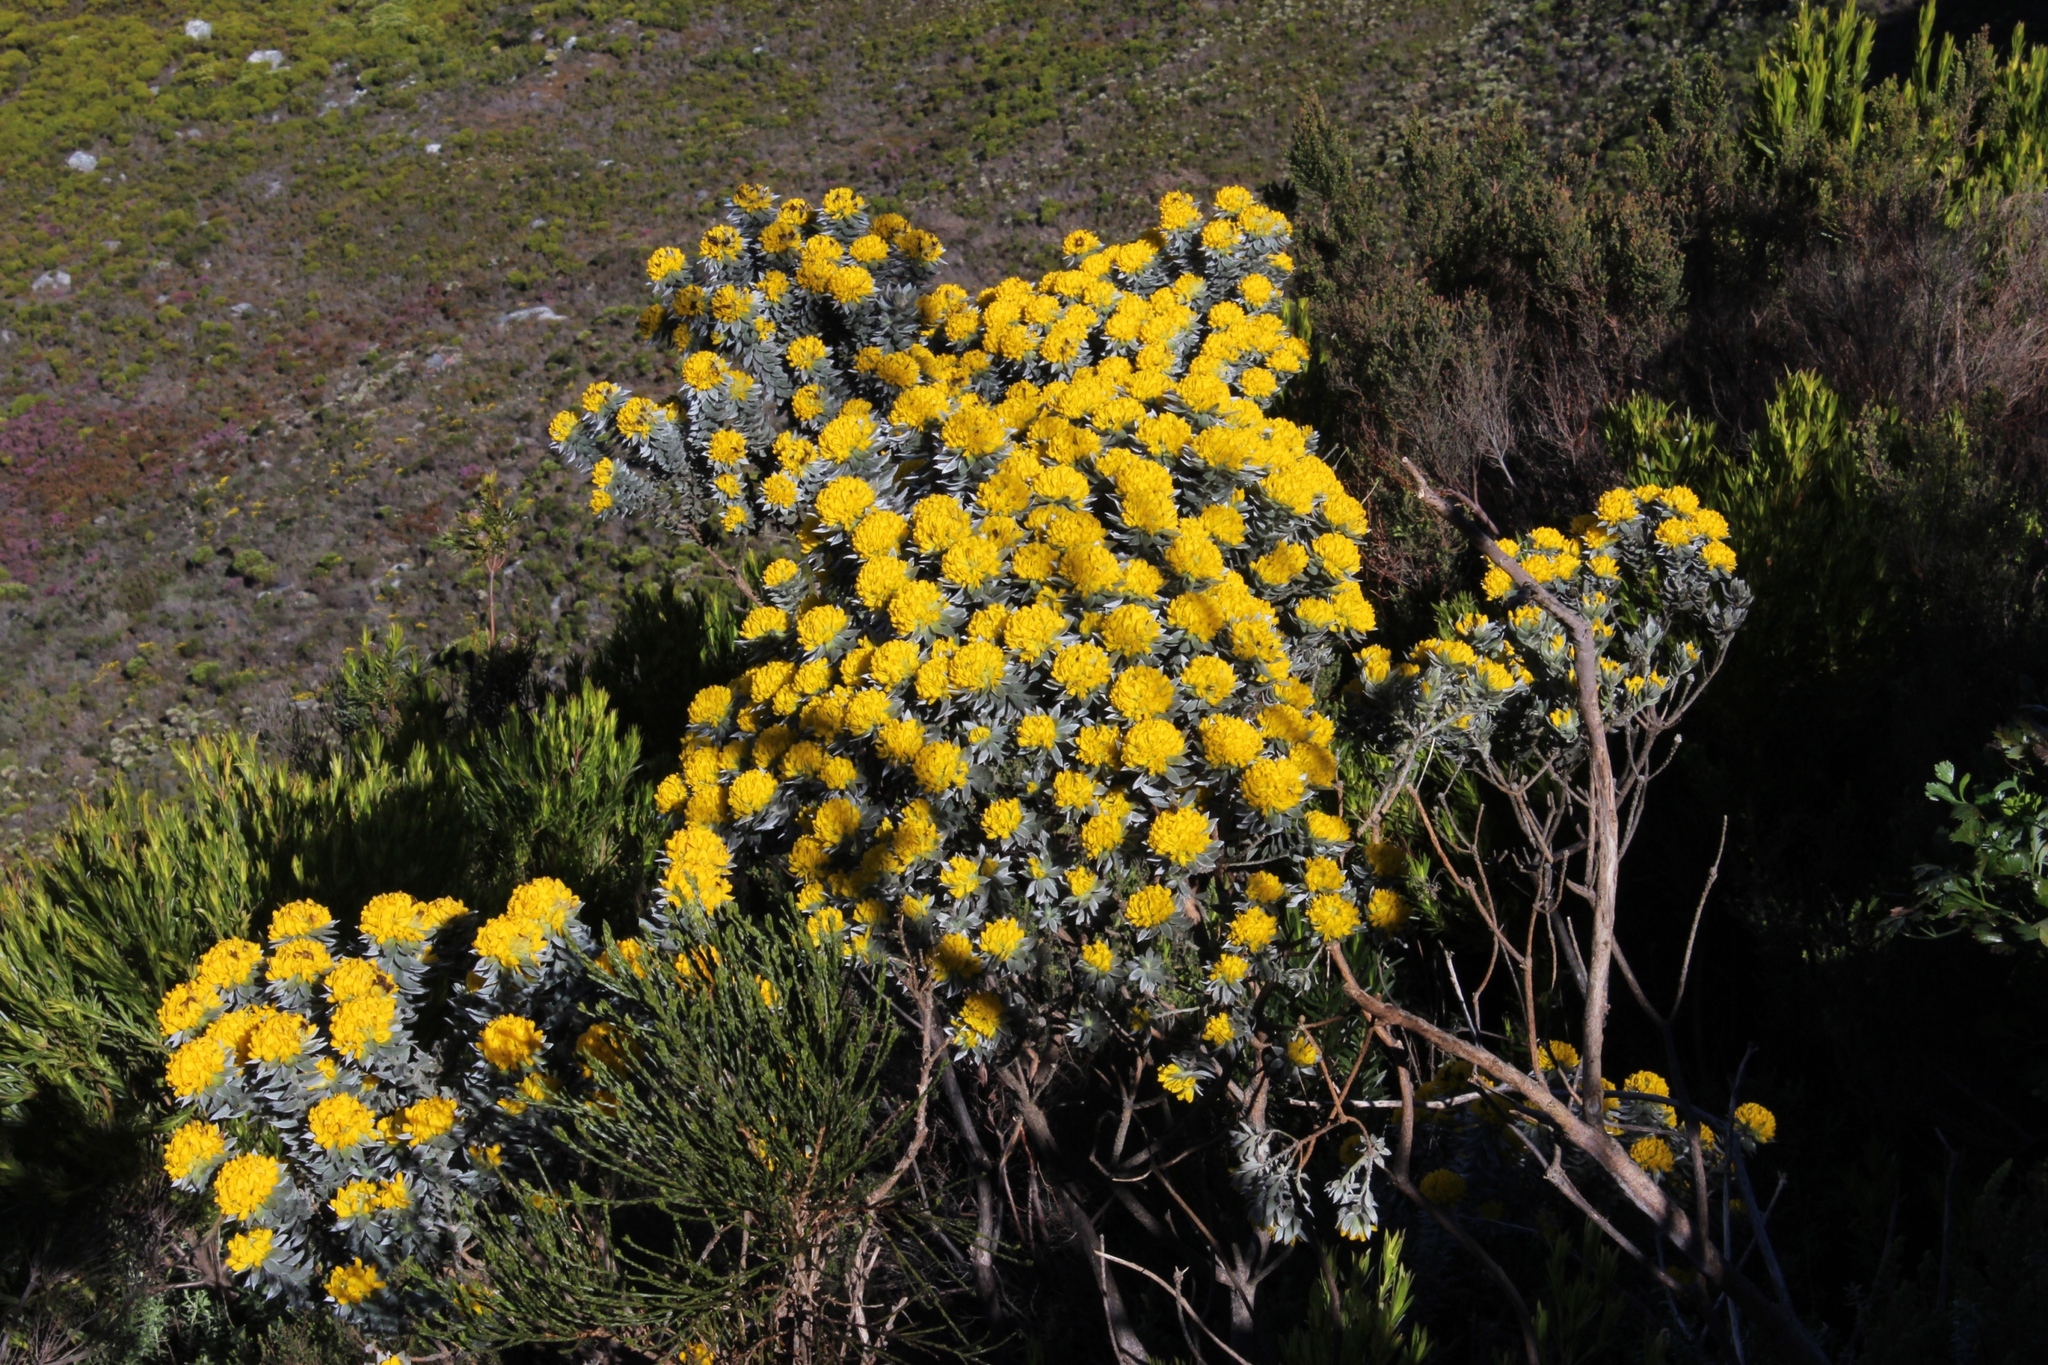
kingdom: Plantae
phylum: Tracheophyta
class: Magnoliopsida
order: Fabales
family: Fabaceae
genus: Xiphotheca
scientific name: Xiphotheca fruticosa
